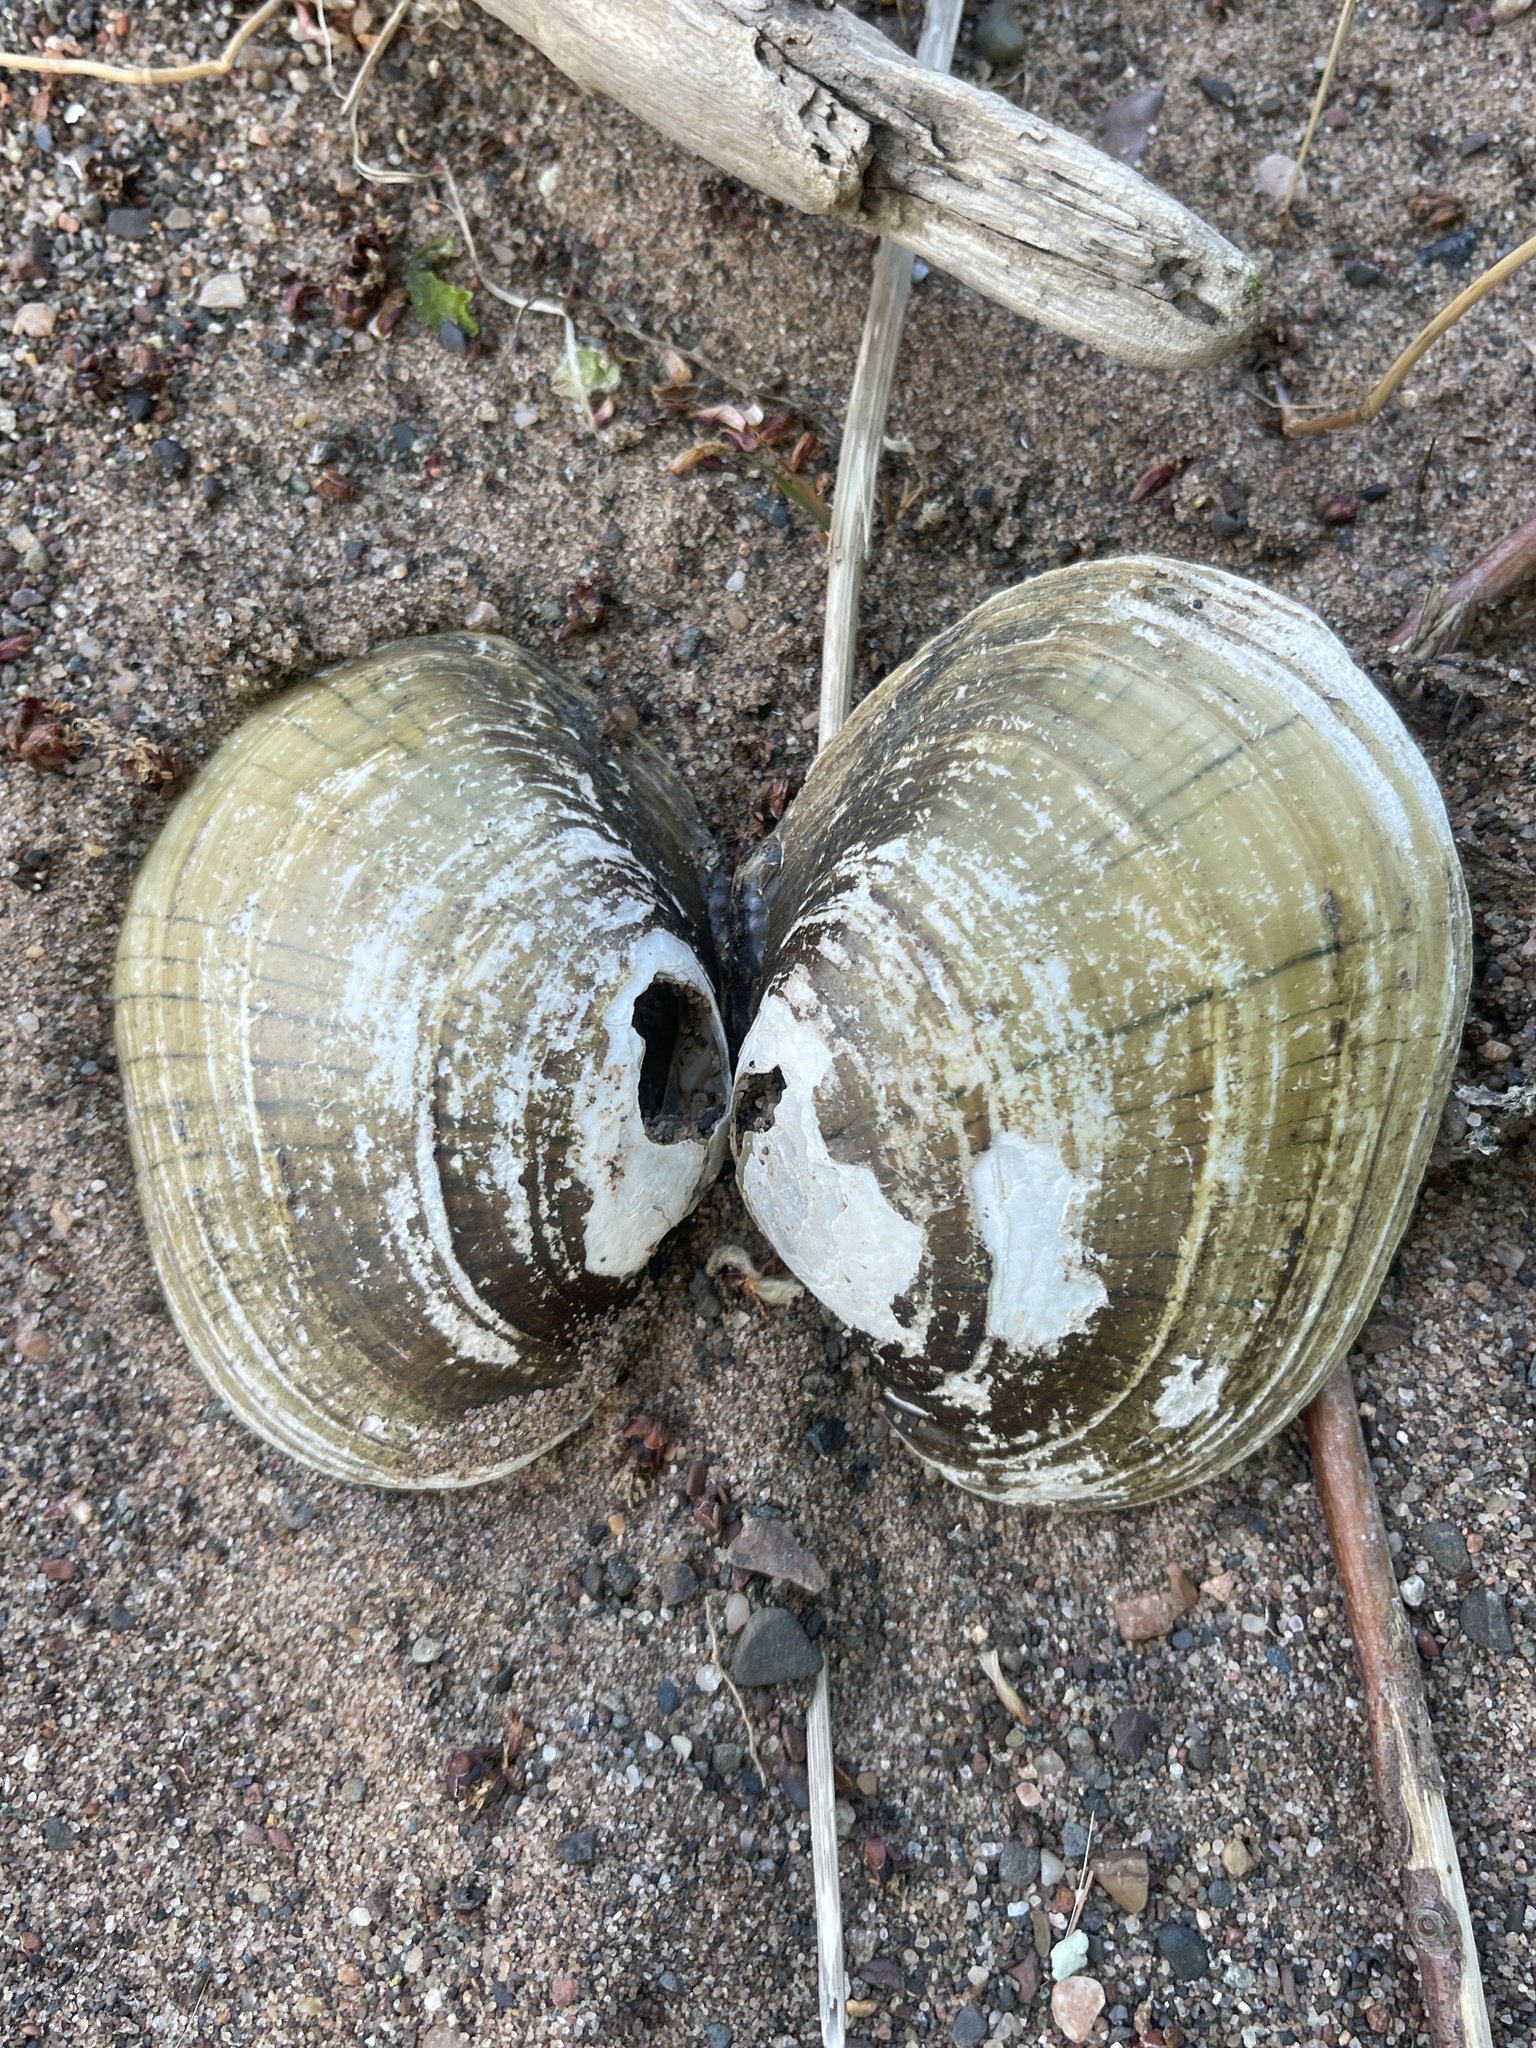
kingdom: Animalia
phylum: Mollusca
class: Bivalvia
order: Unionida
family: Unionidae
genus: Lampsilis
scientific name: Lampsilis cardium
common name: Plain pocketbook
